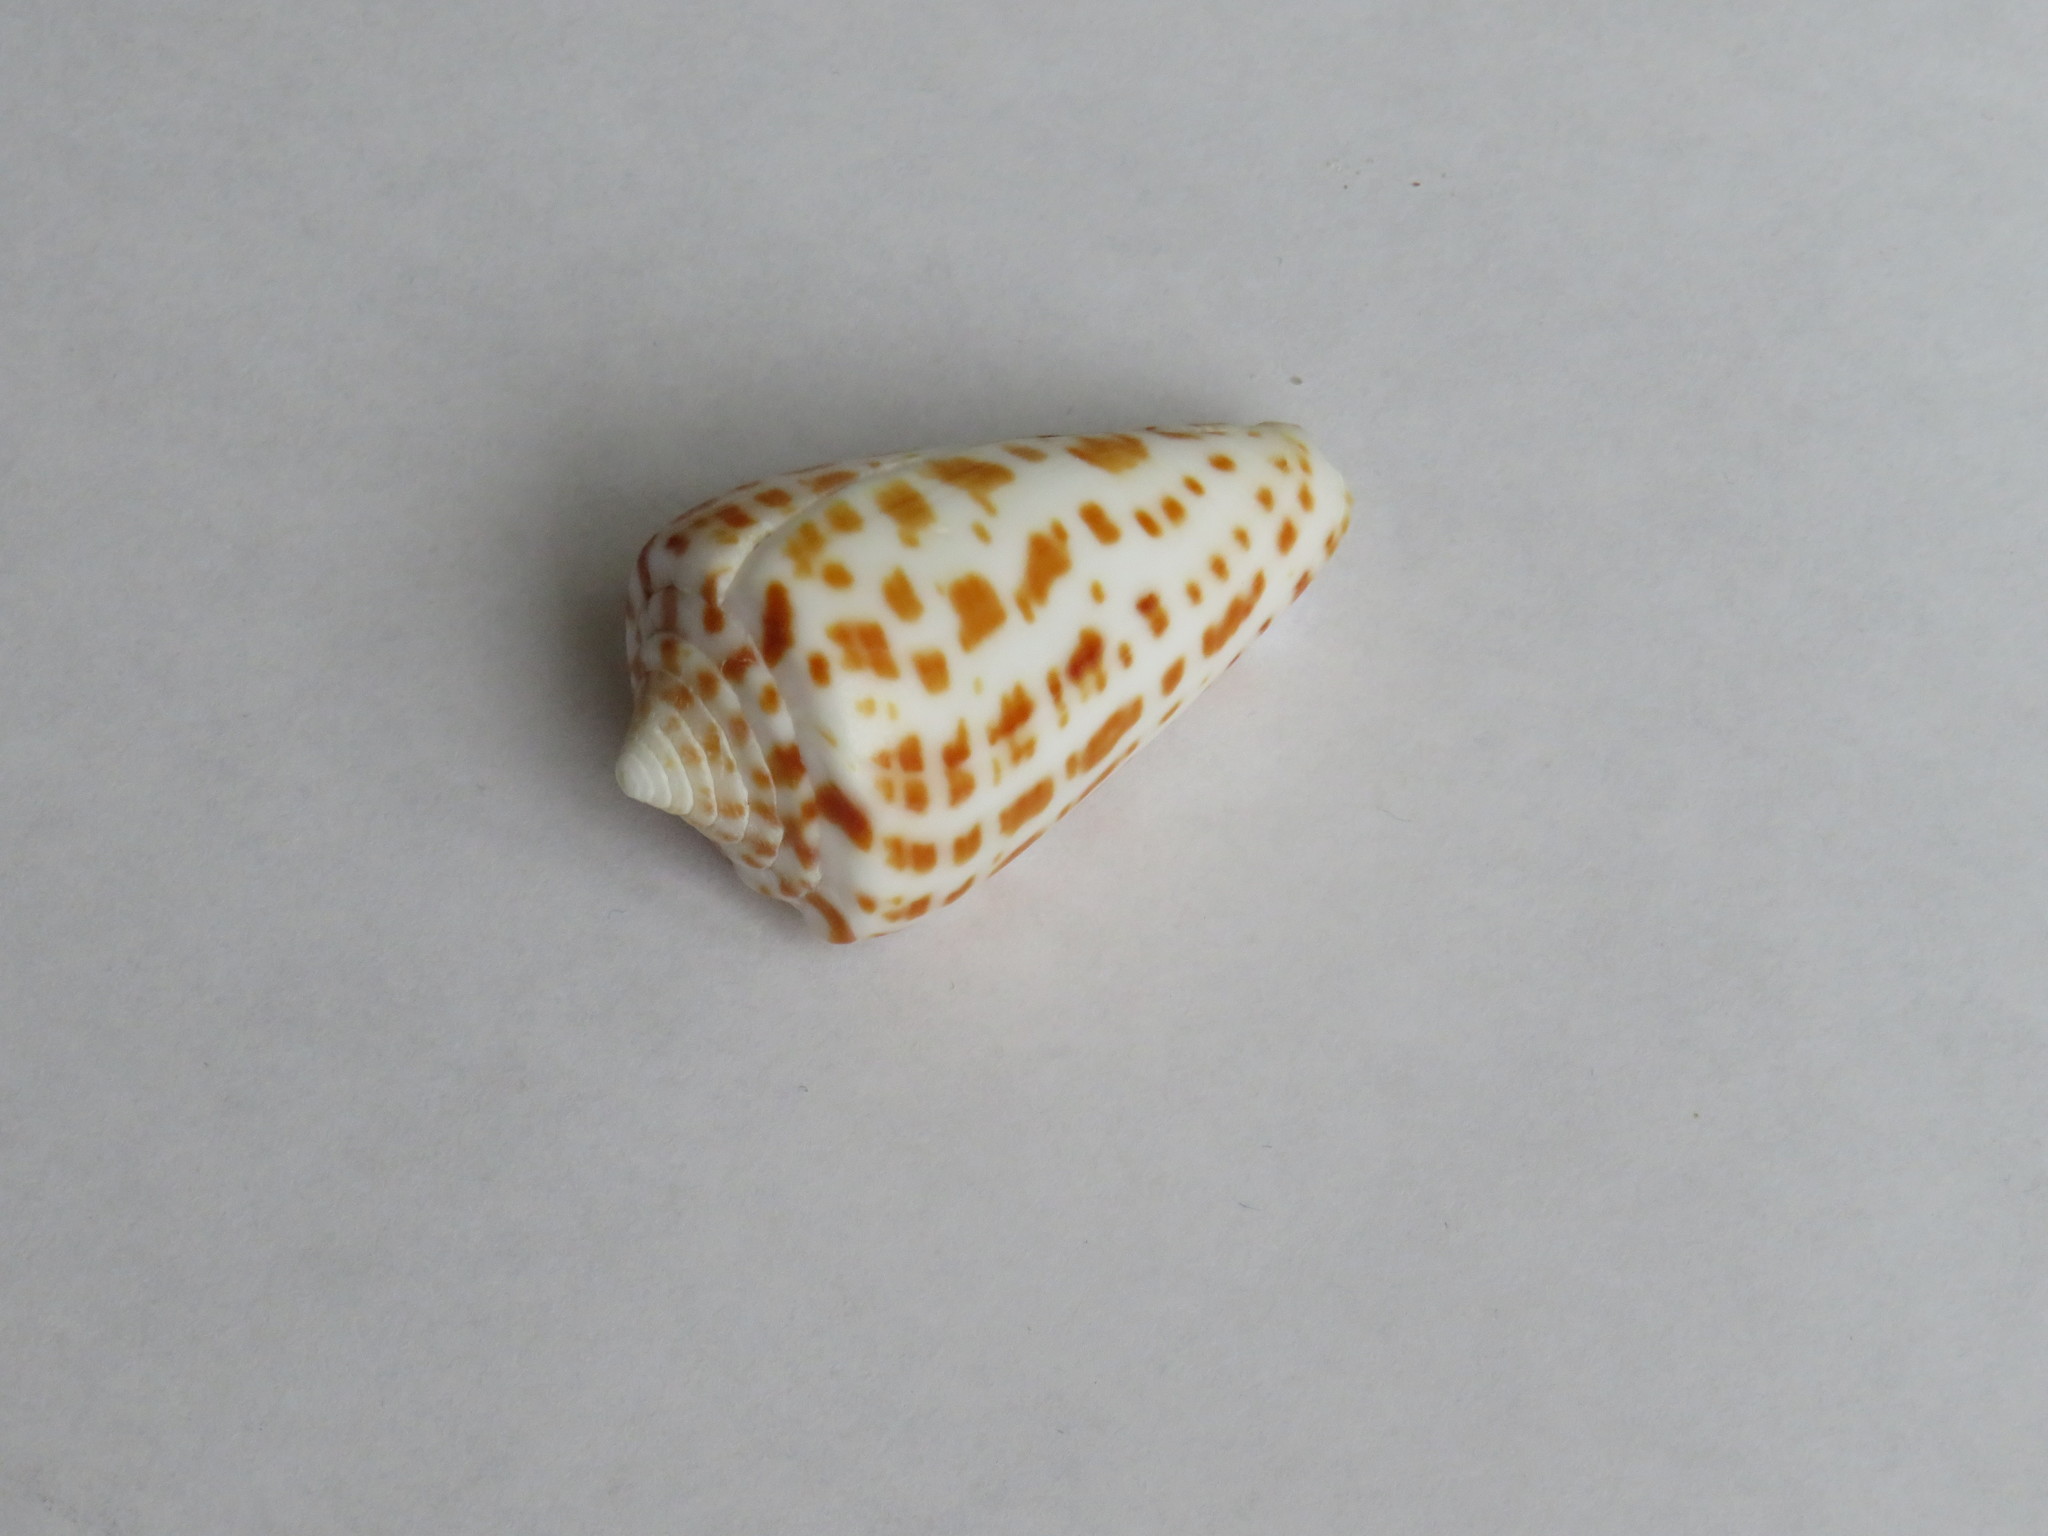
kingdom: Animalia
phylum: Mollusca
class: Gastropoda
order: Neogastropoda
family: Conidae
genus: Conus
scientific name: Conus spurius
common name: Alphabet cone
